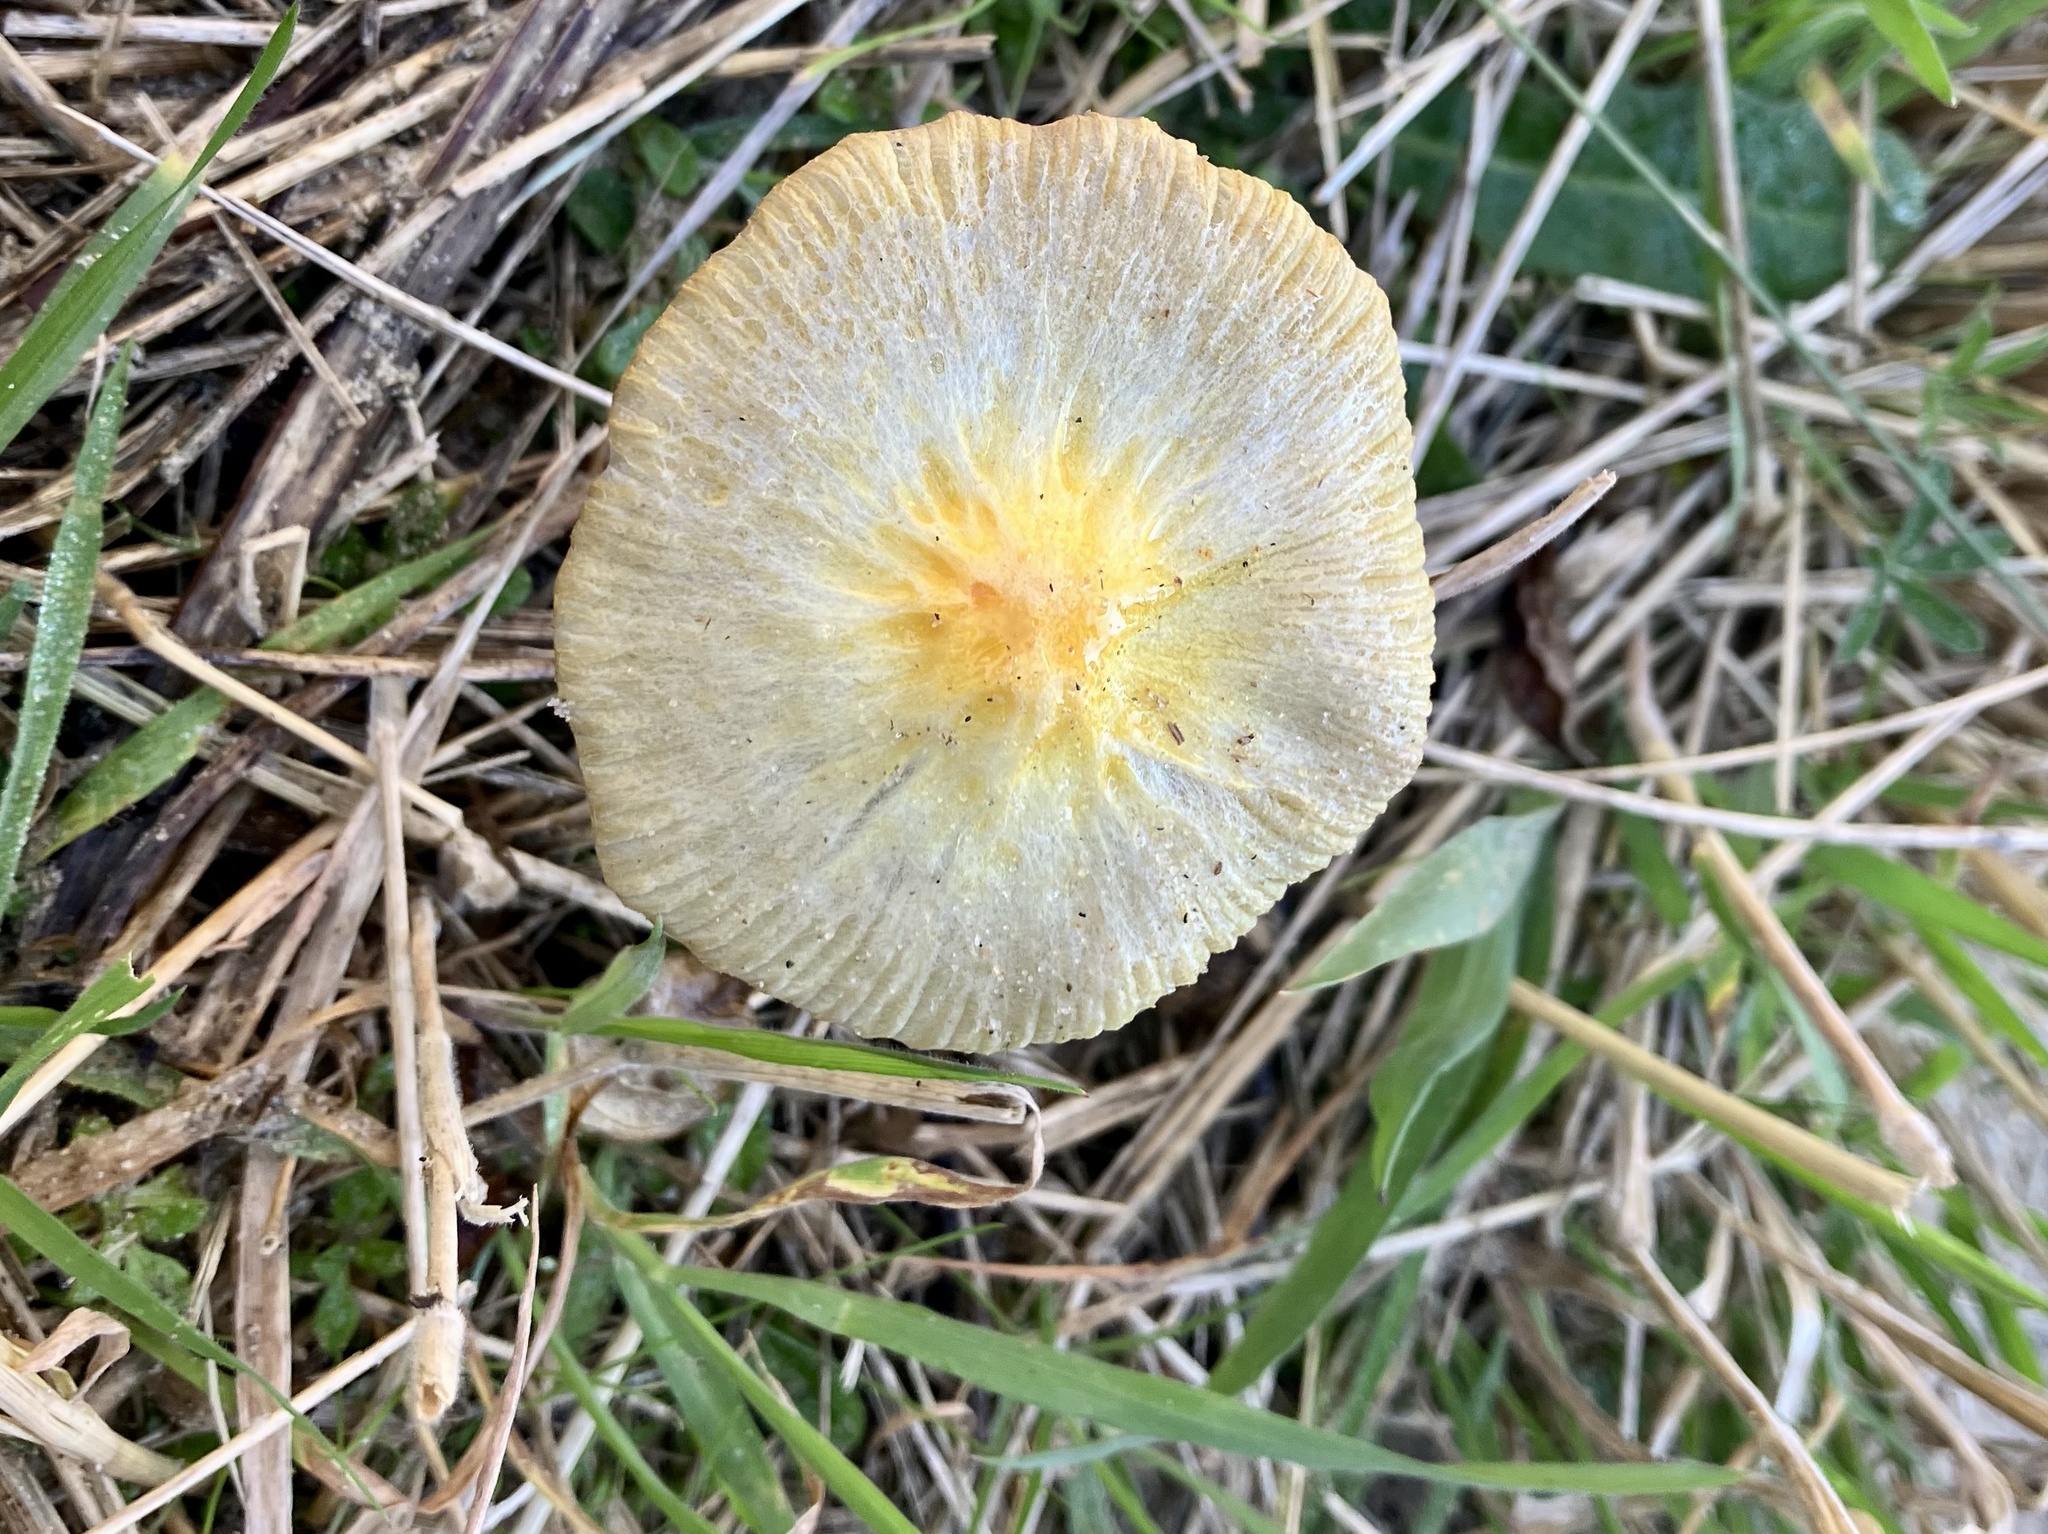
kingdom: Fungi
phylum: Basidiomycota
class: Agaricomycetes
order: Agaricales
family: Bolbitiaceae
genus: Bolbitius
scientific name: Bolbitius titubans
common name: Yellow fieldcap
